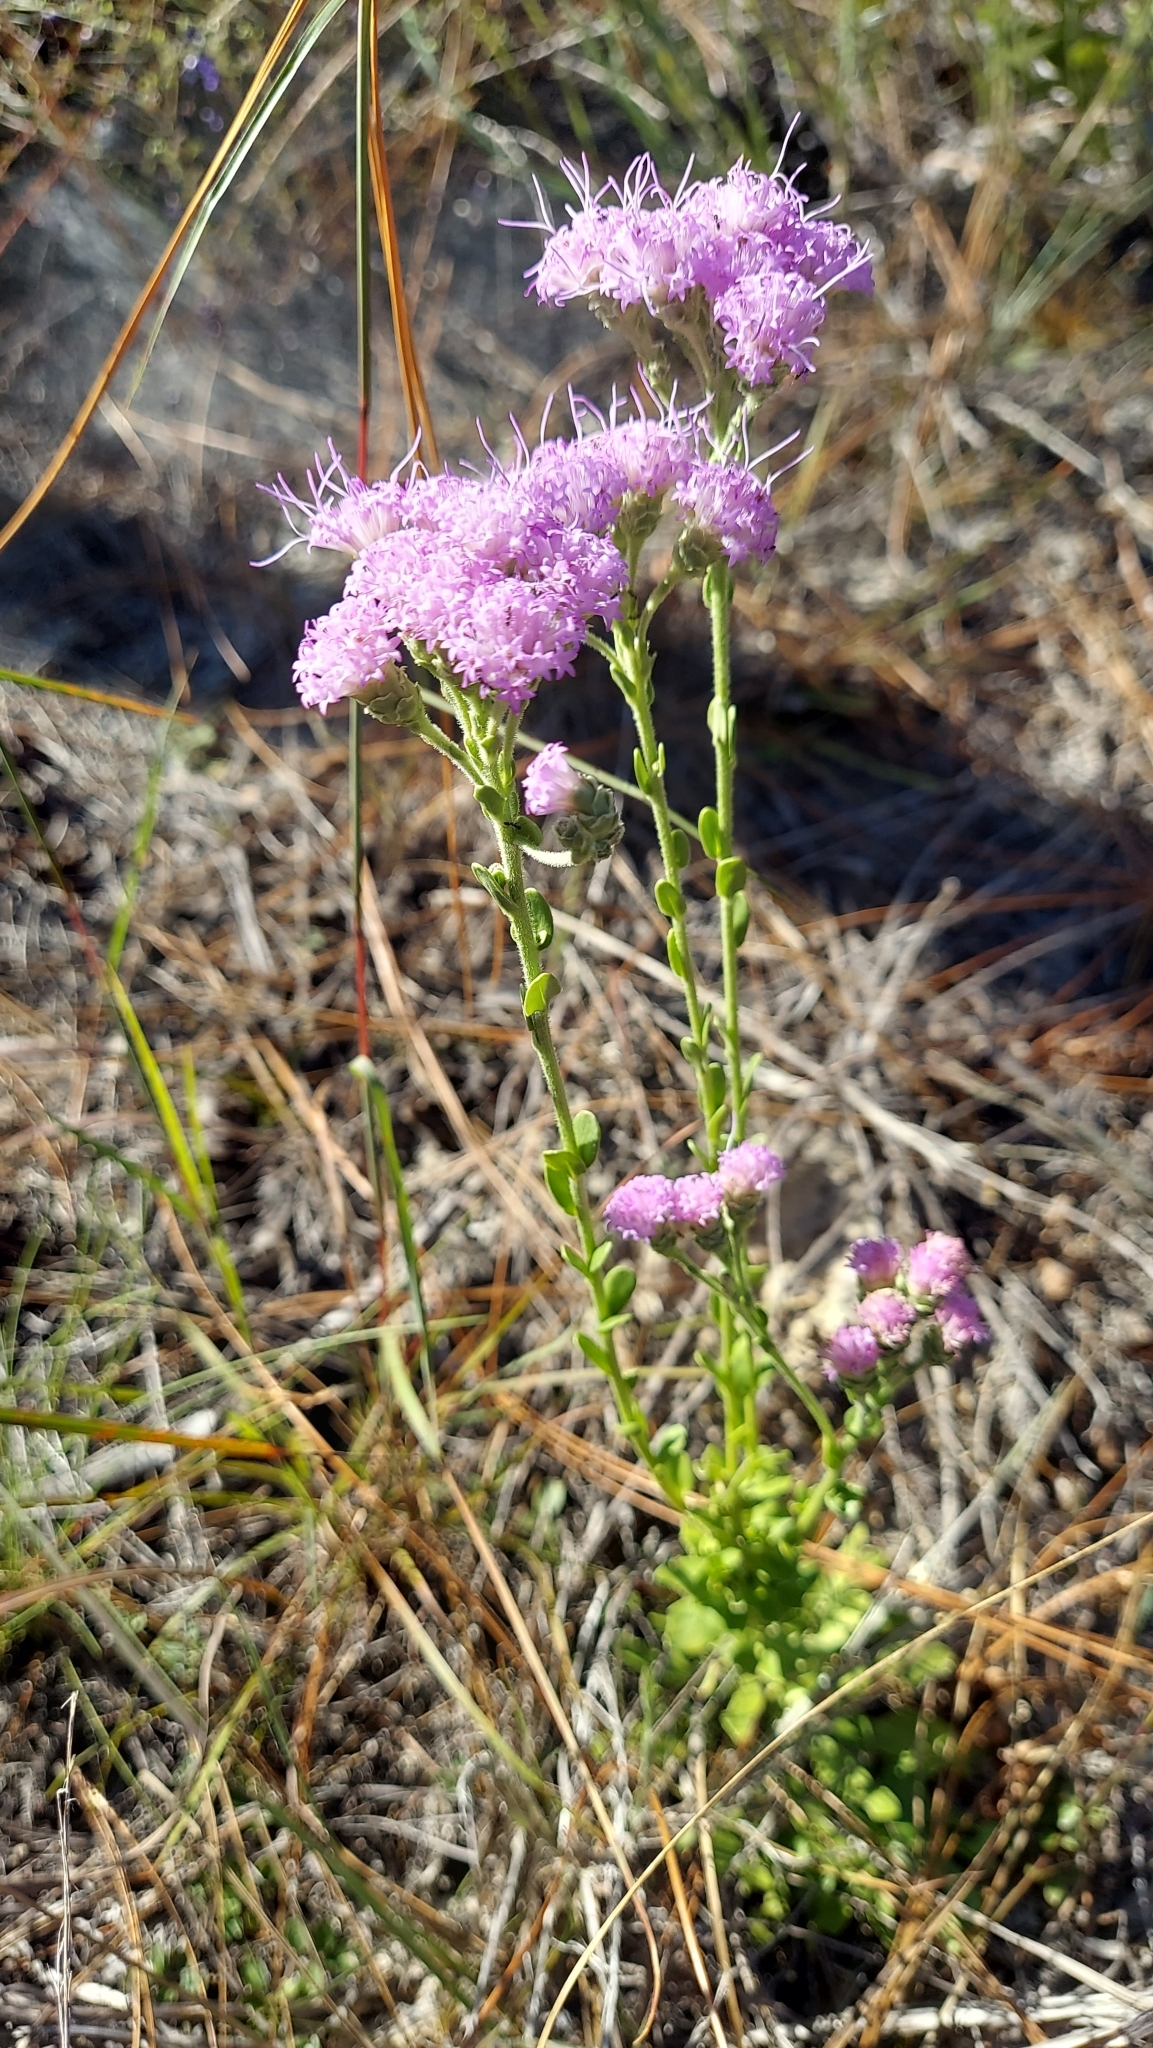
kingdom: Plantae
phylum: Tracheophyta
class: Magnoliopsida
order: Asterales
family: Asteraceae
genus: Carphephorus
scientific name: Carphephorus corymbosus
